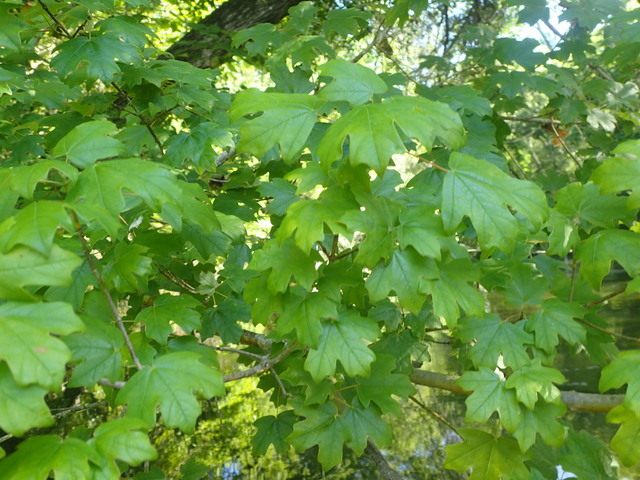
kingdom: Plantae
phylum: Tracheophyta
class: Magnoliopsida
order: Sapindales
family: Sapindaceae
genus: Acer
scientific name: Acer floridanum
